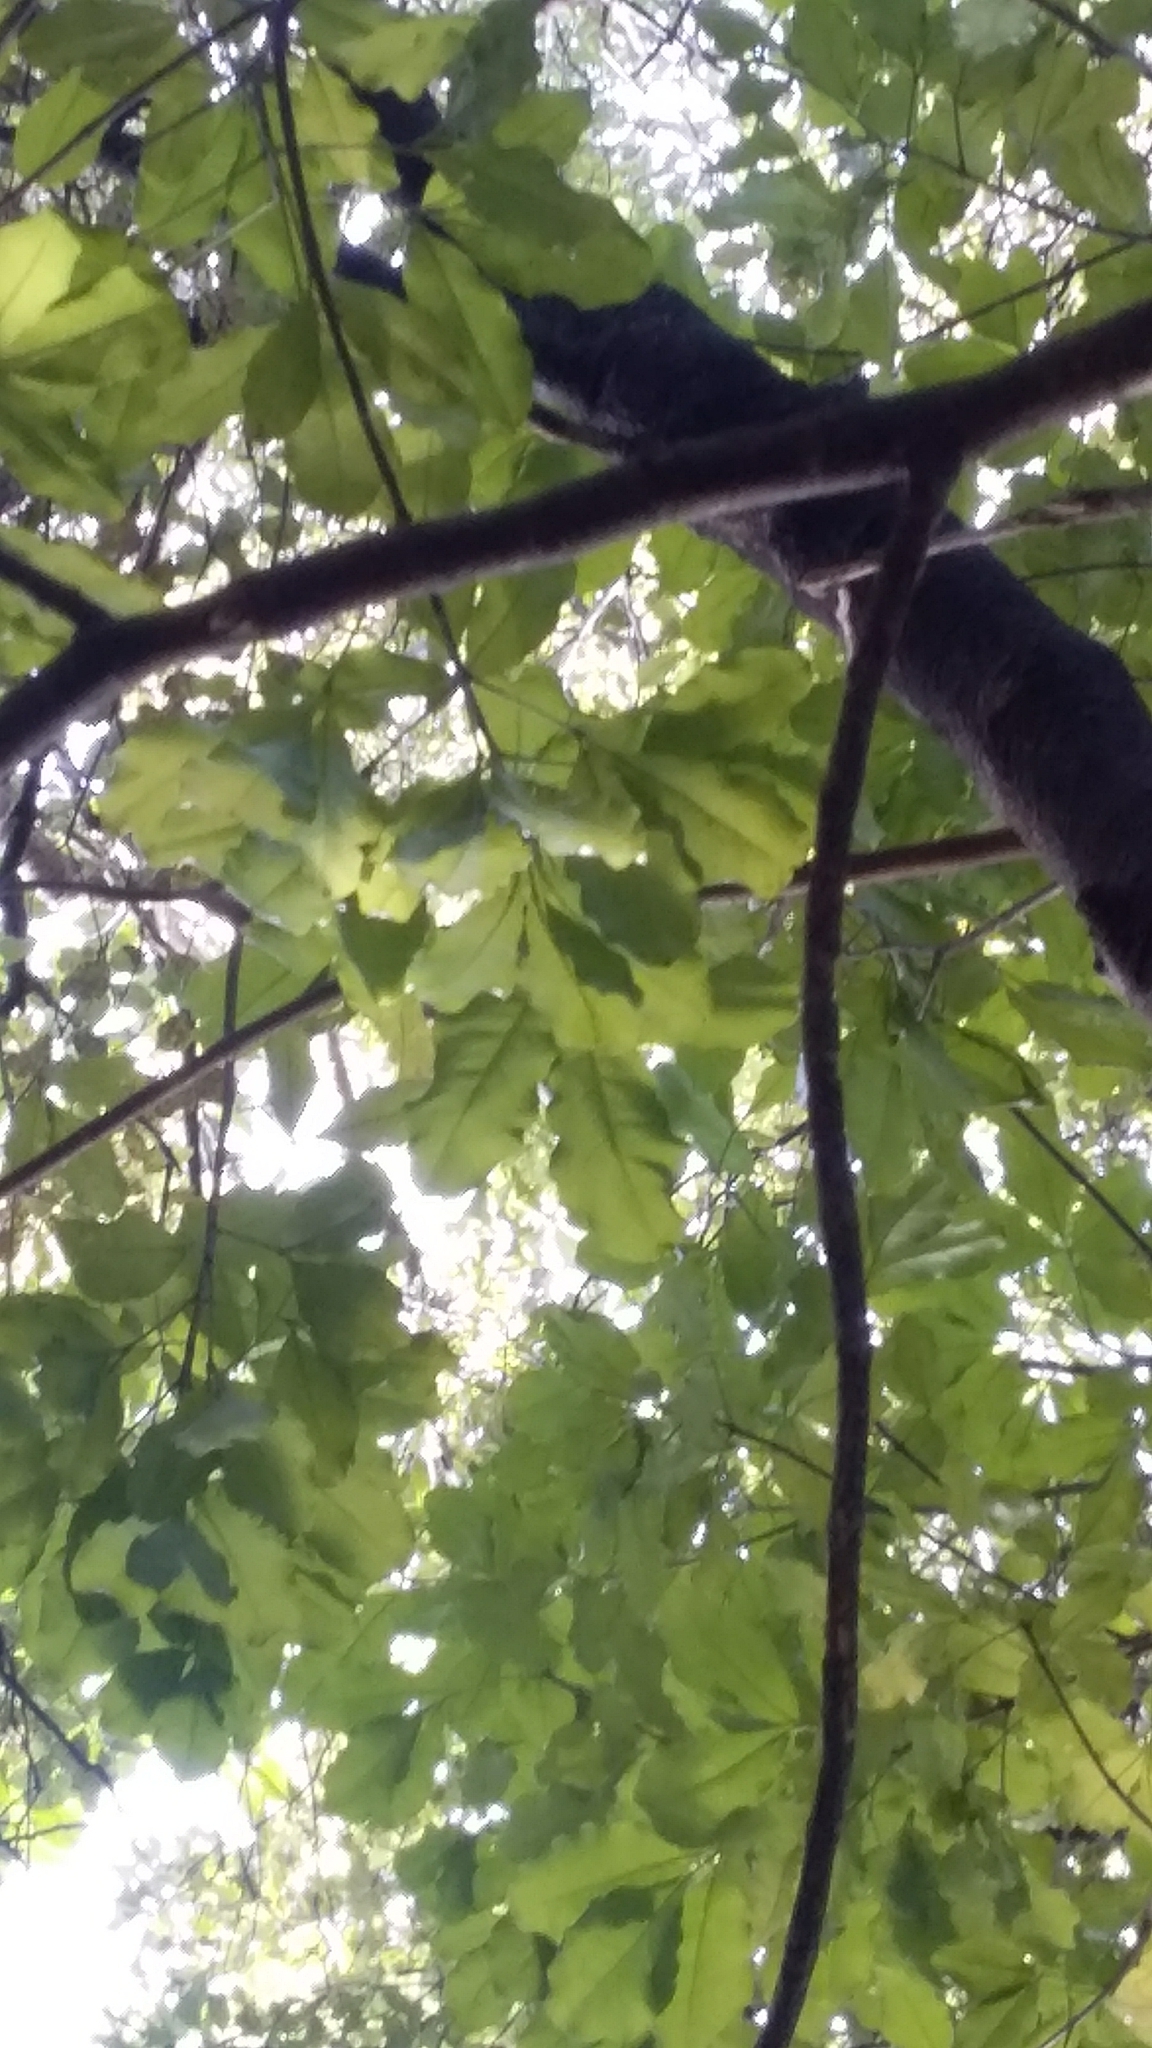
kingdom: Plantae
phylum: Tracheophyta
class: Magnoliopsida
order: Sapindales
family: Rutaceae
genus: Melicope
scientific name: Melicope ternata
